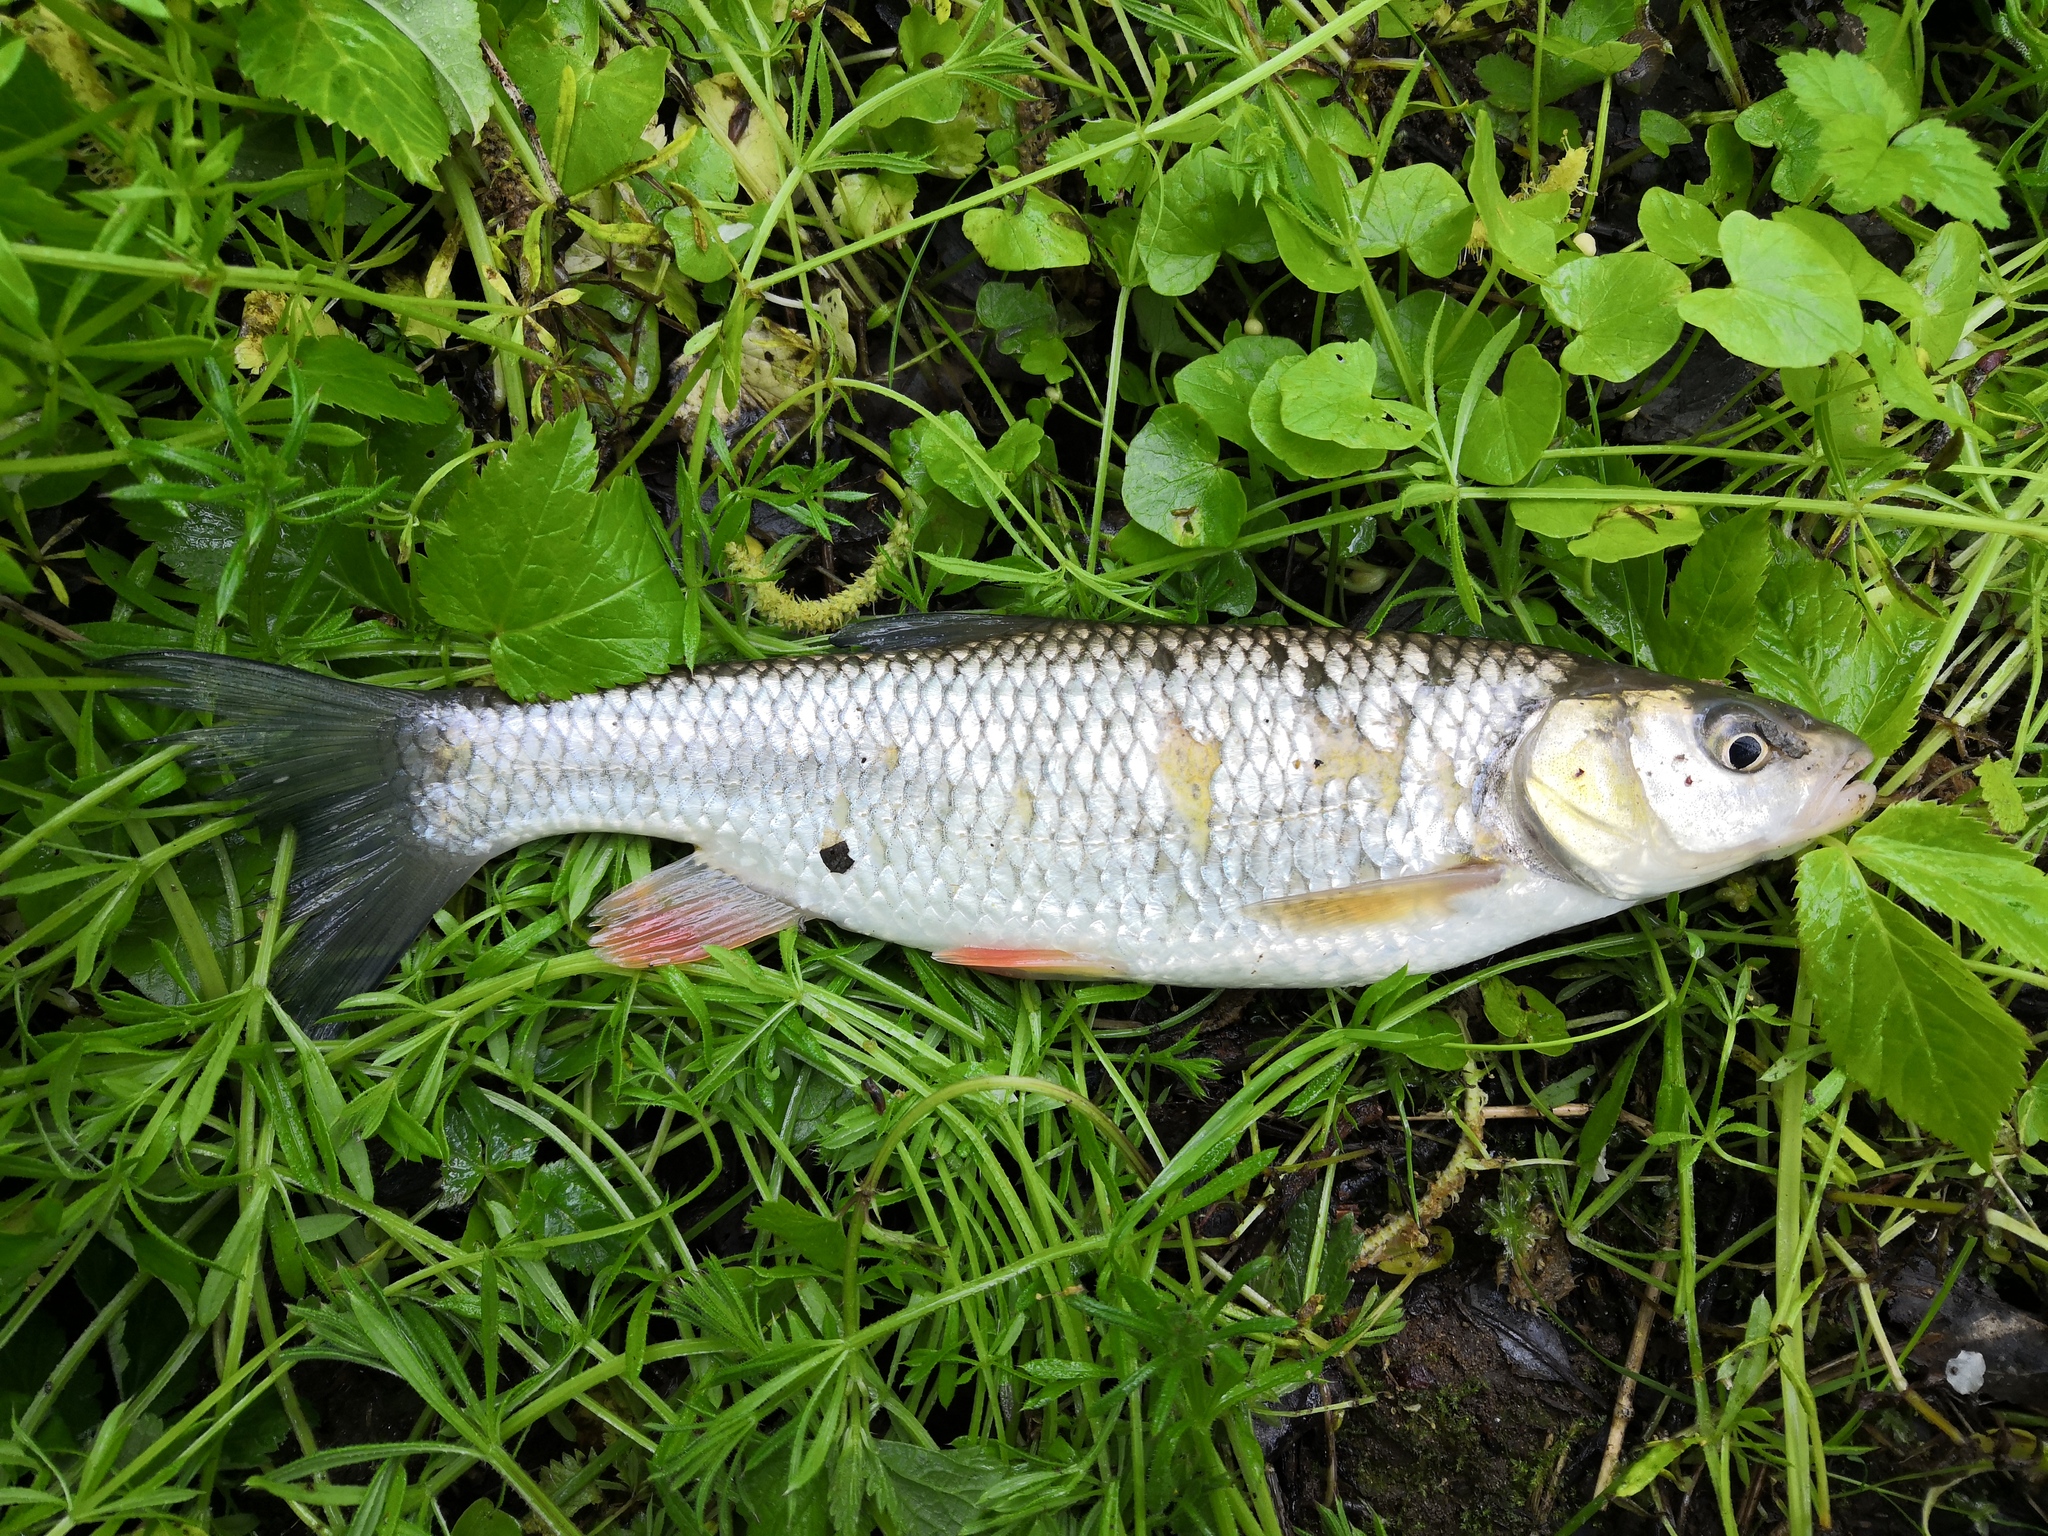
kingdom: Animalia
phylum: Chordata
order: Cypriniformes
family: Cyprinidae
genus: Squalius
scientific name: Squalius cephalus
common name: Chub
